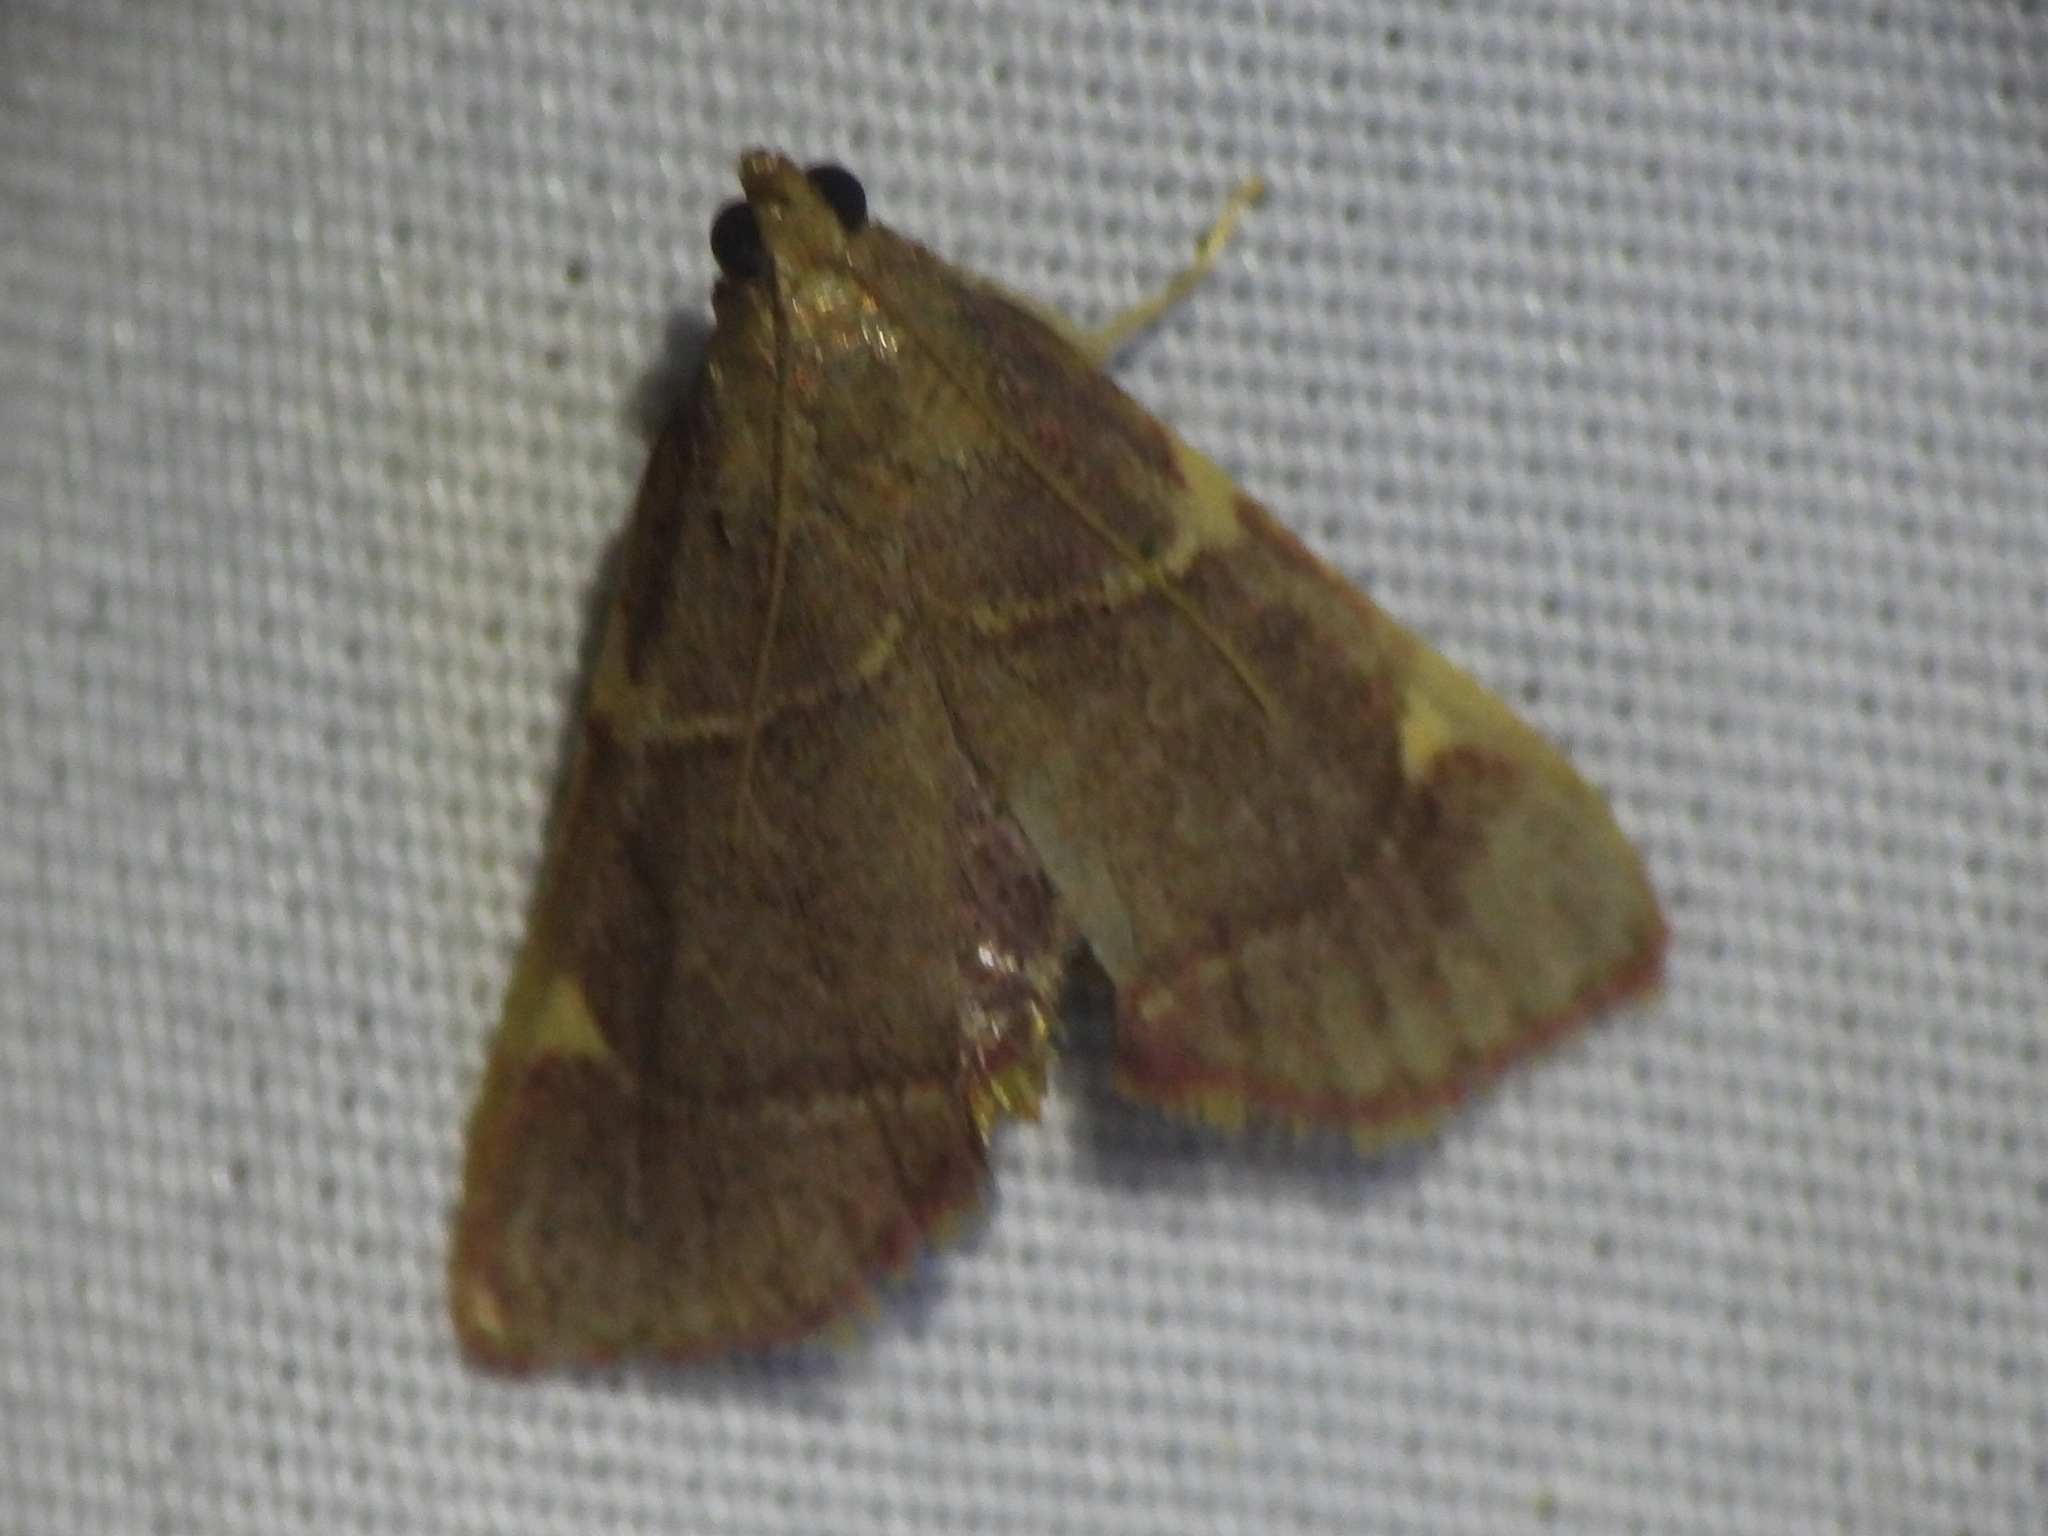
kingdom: Animalia
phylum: Arthropoda
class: Insecta
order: Lepidoptera
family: Pyralidae
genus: Hypsopygia
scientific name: Hypsopygia olinalis
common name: Yellow-fringed dolichomia moth
